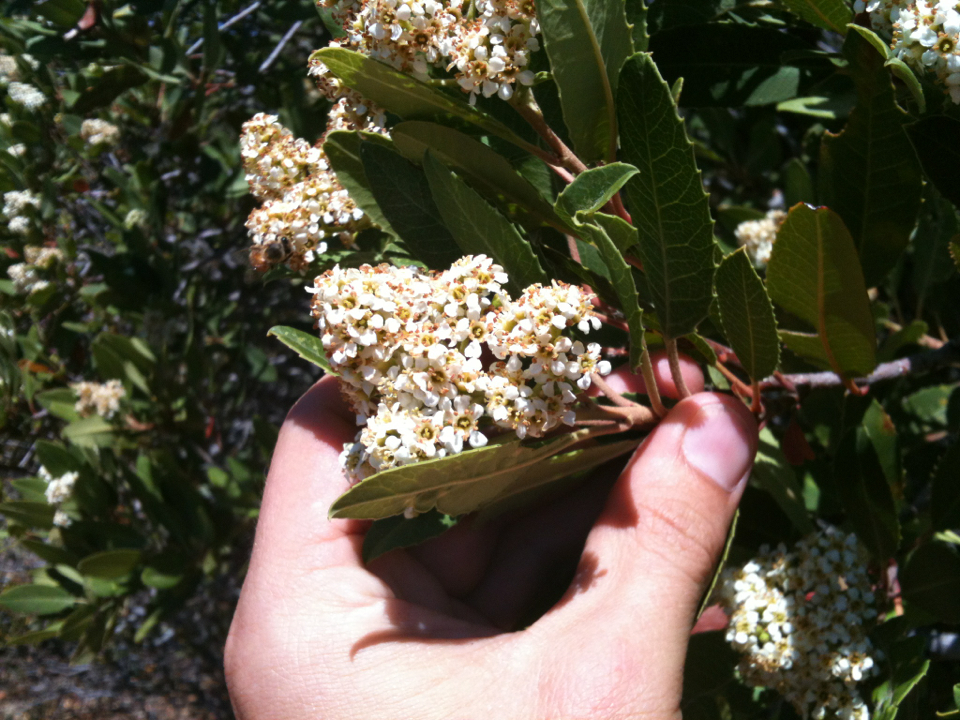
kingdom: Plantae
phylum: Tracheophyta
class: Magnoliopsida
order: Rosales
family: Rosaceae
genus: Heteromeles
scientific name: Heteromeles arbutifolia
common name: California-holly
